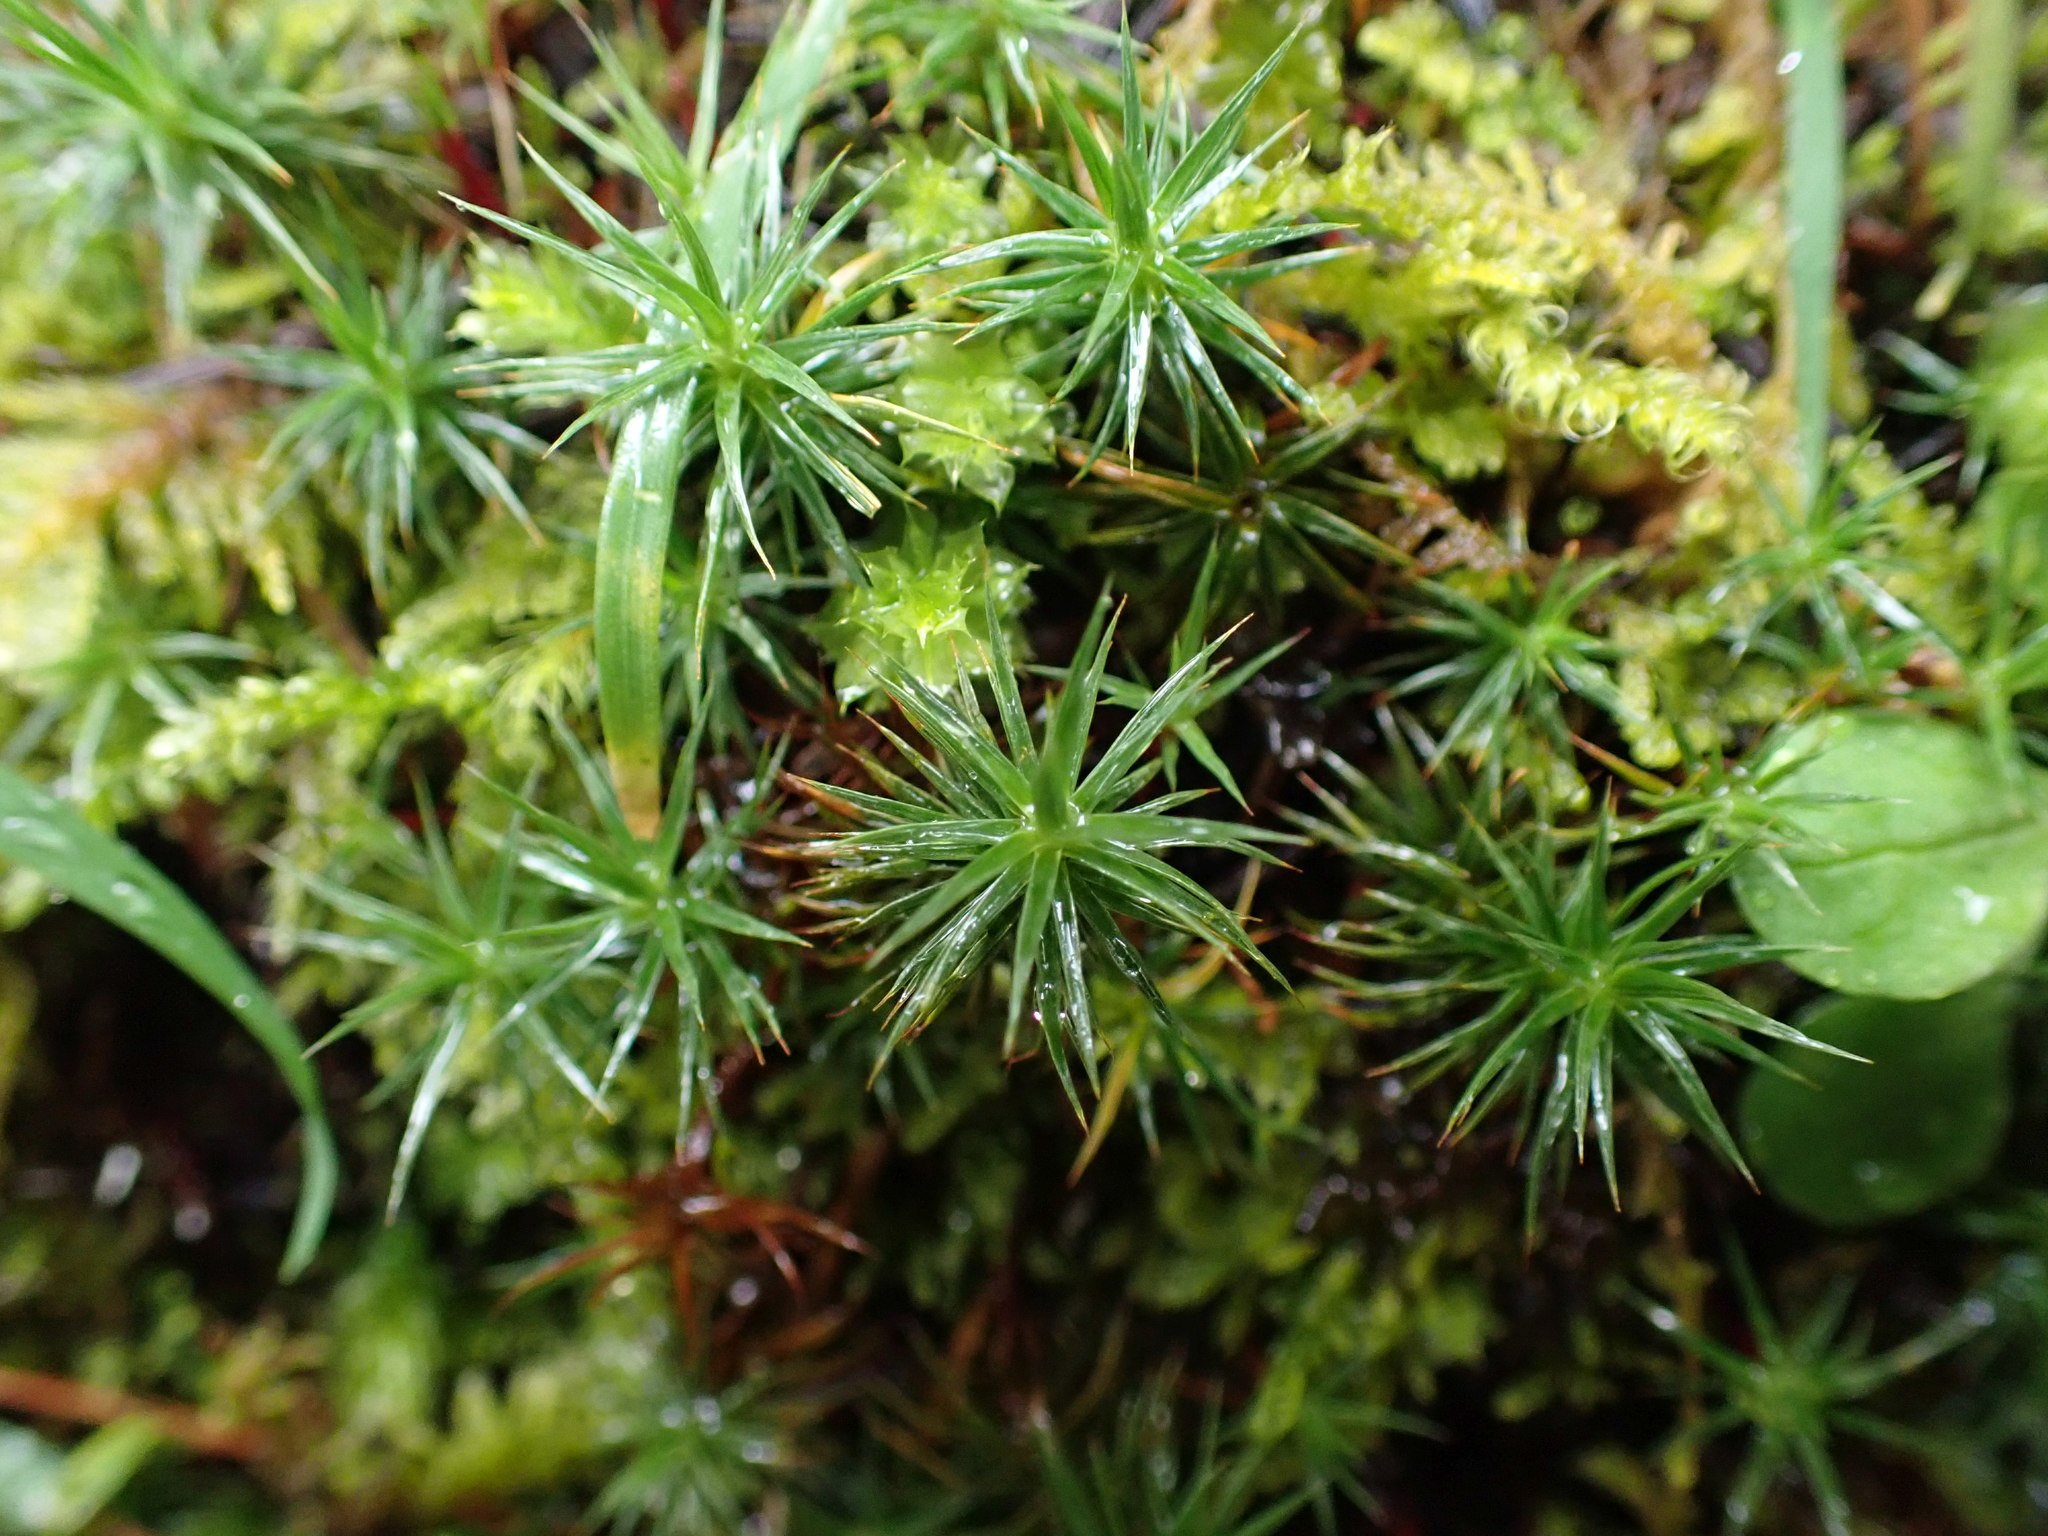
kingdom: Plantae
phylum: Bryophyta
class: Polytrichopsida
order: Polytrichales
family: Polytrichaceae
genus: Polytrichum
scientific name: Polytrichum juniperinum
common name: Juniper haircap moss
